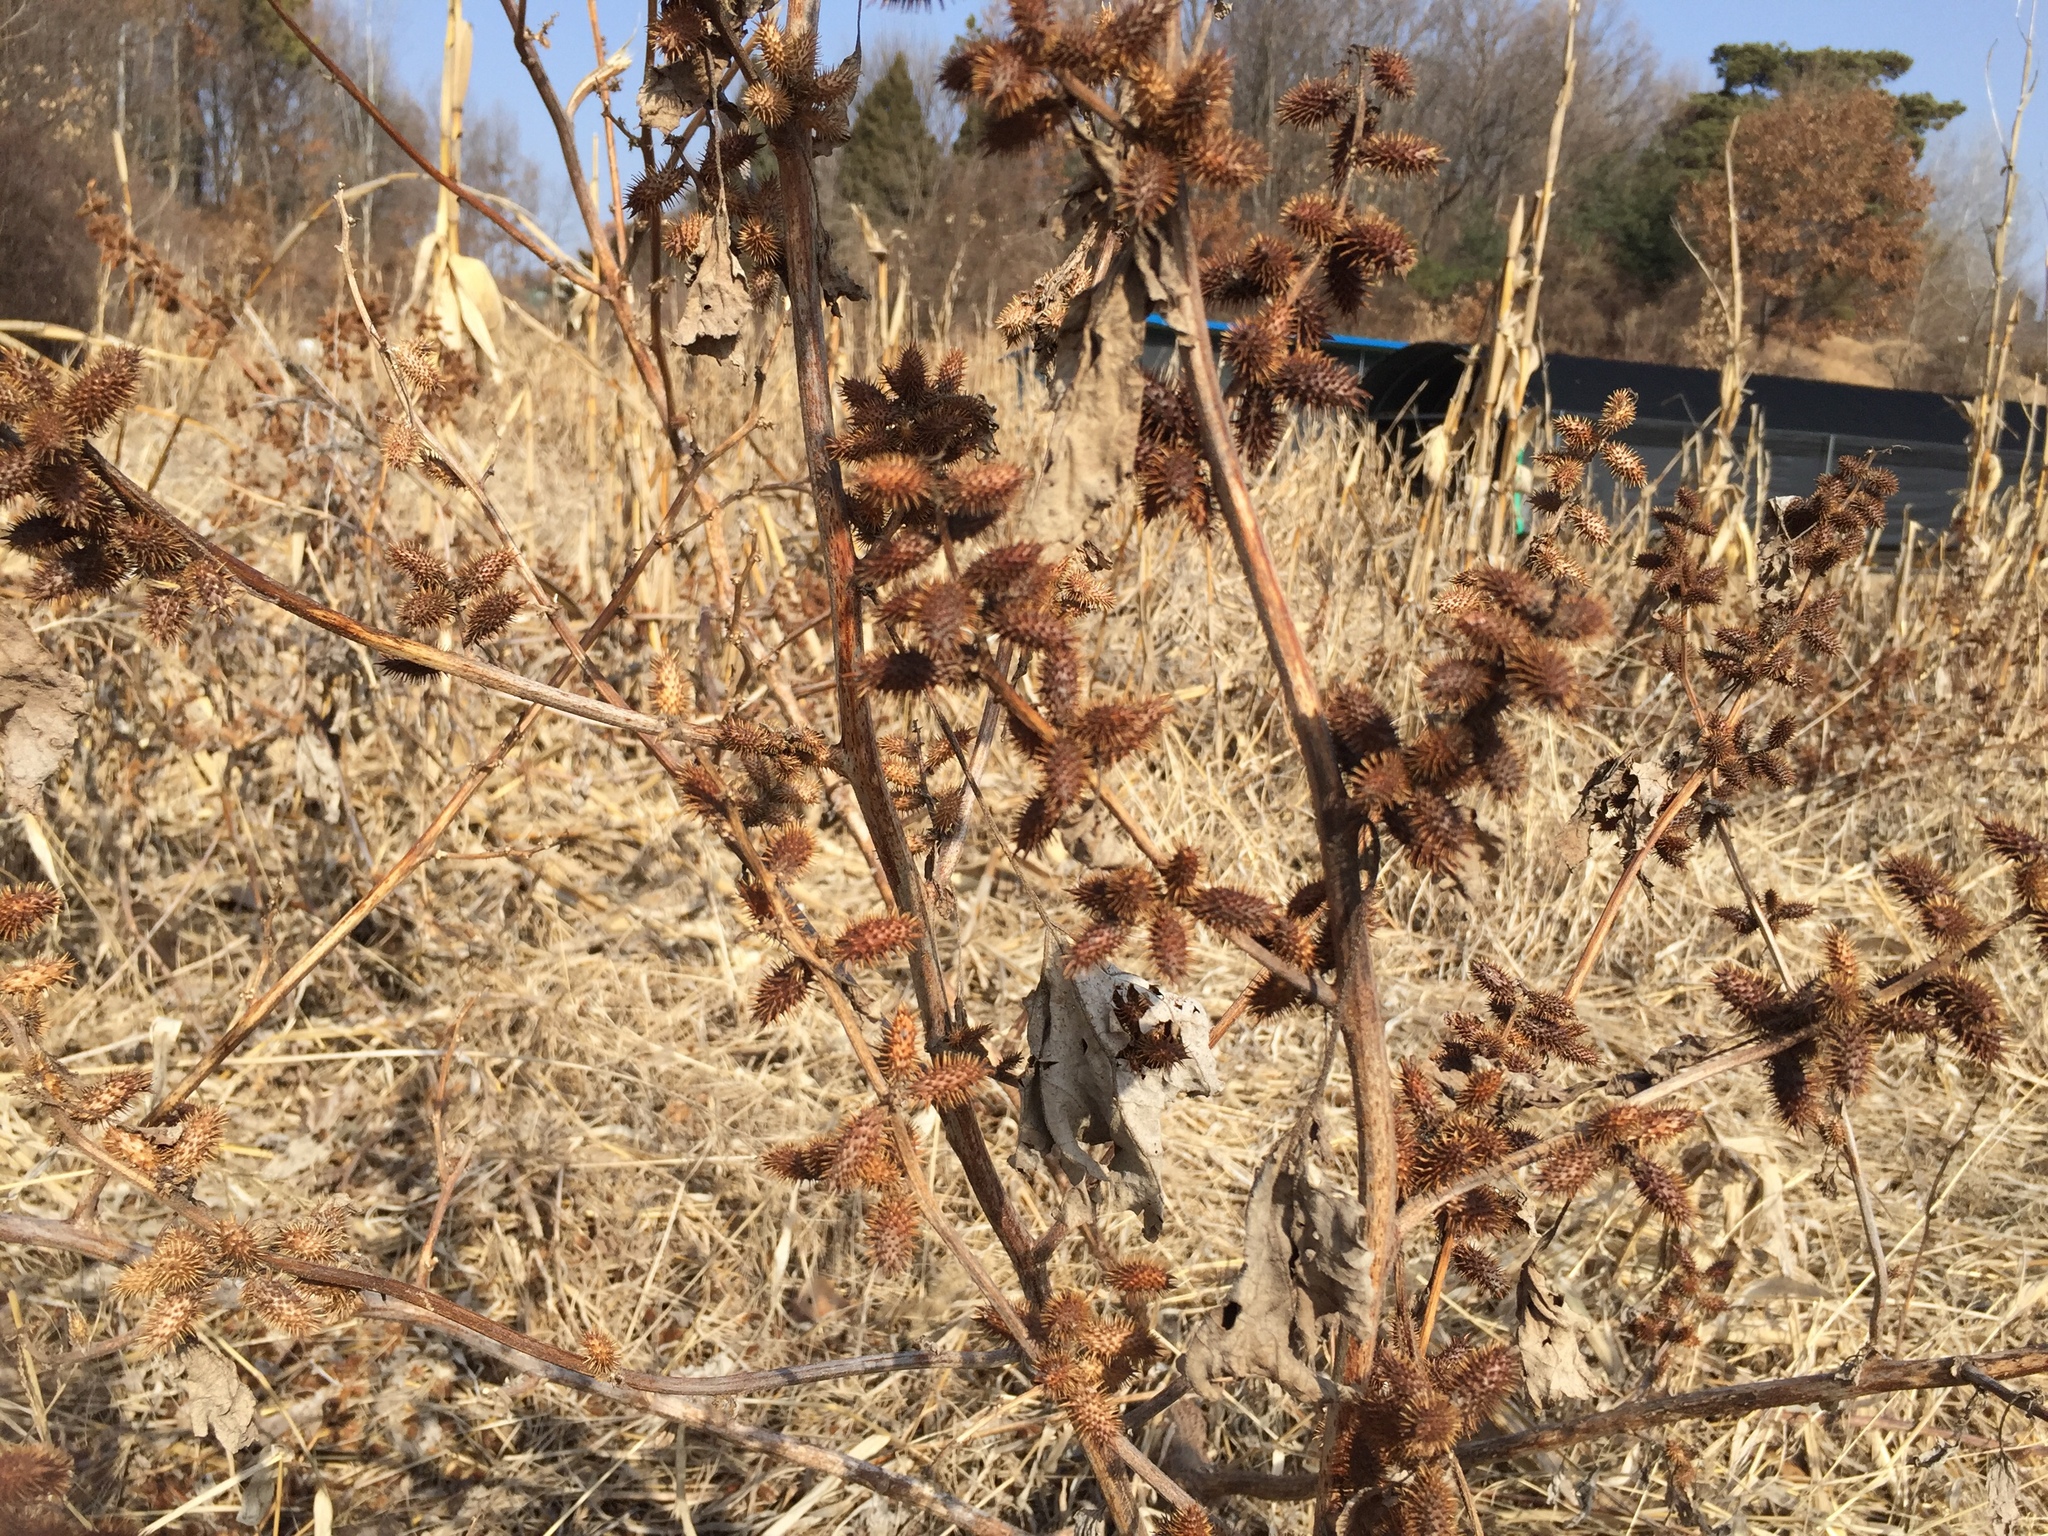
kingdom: Plantae
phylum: Tracheophyta
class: Magnoliopsida
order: Asterales
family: Asteraceae
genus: Xanthium
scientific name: Xanthium strumarium
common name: Rough cocklebur
